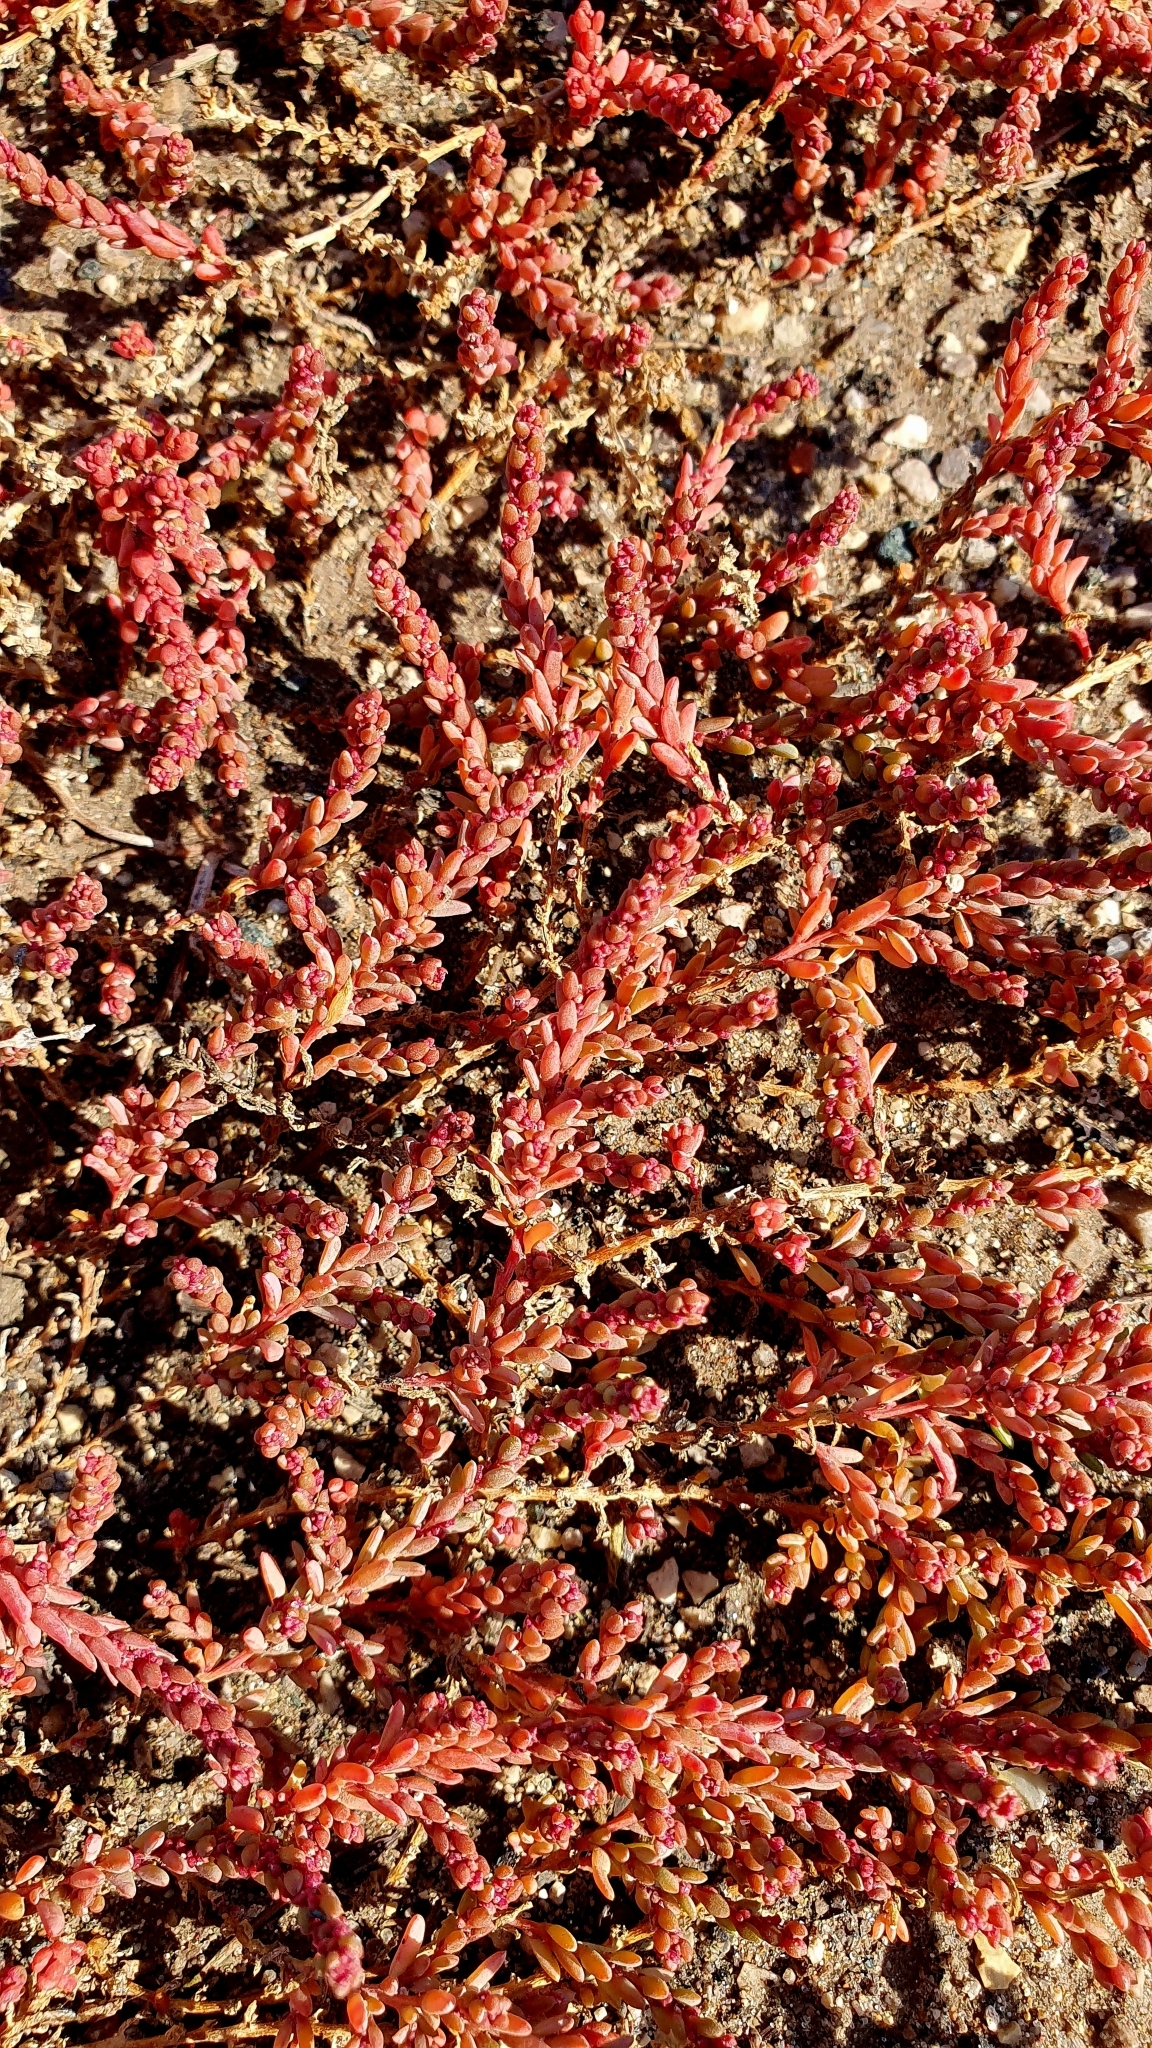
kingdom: Plantae
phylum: Tracheophyta
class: Magnoliopsida
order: Caryophyllales
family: Amaranthaceae
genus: Suaeda
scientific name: Suaeda corniculata
